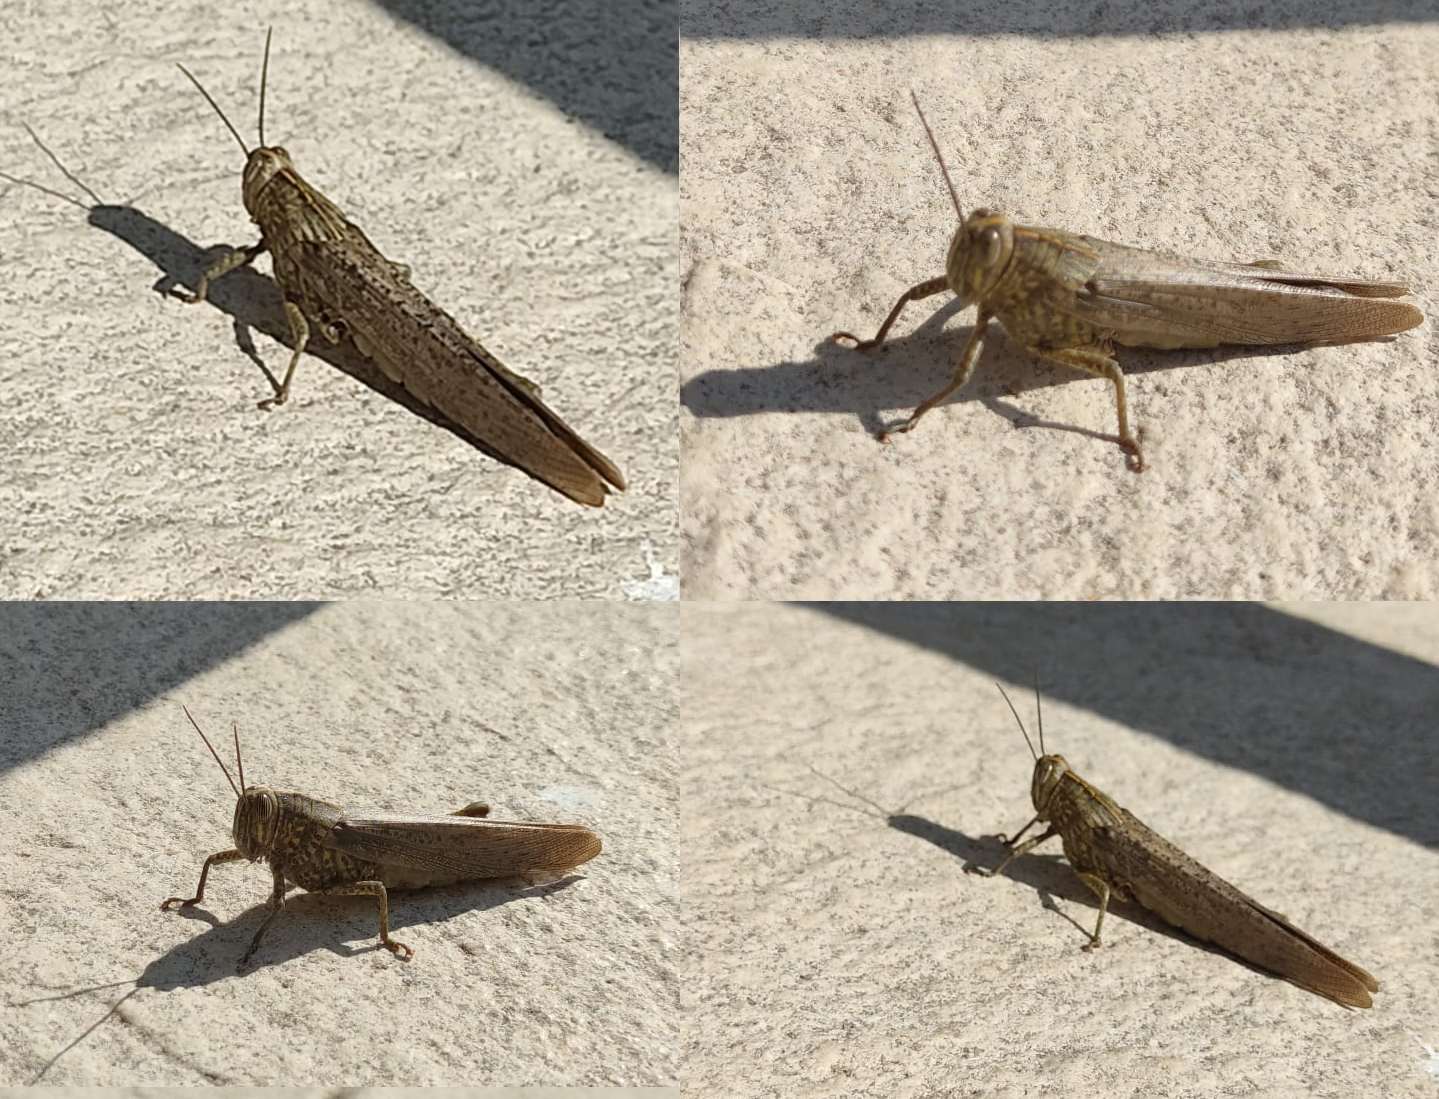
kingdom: Animalia
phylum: Arthropoda
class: Insecta
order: Orthoptera
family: Acrididae
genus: Anacridium
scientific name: Anacridium aegyptium
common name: Egyptian grasshopper
